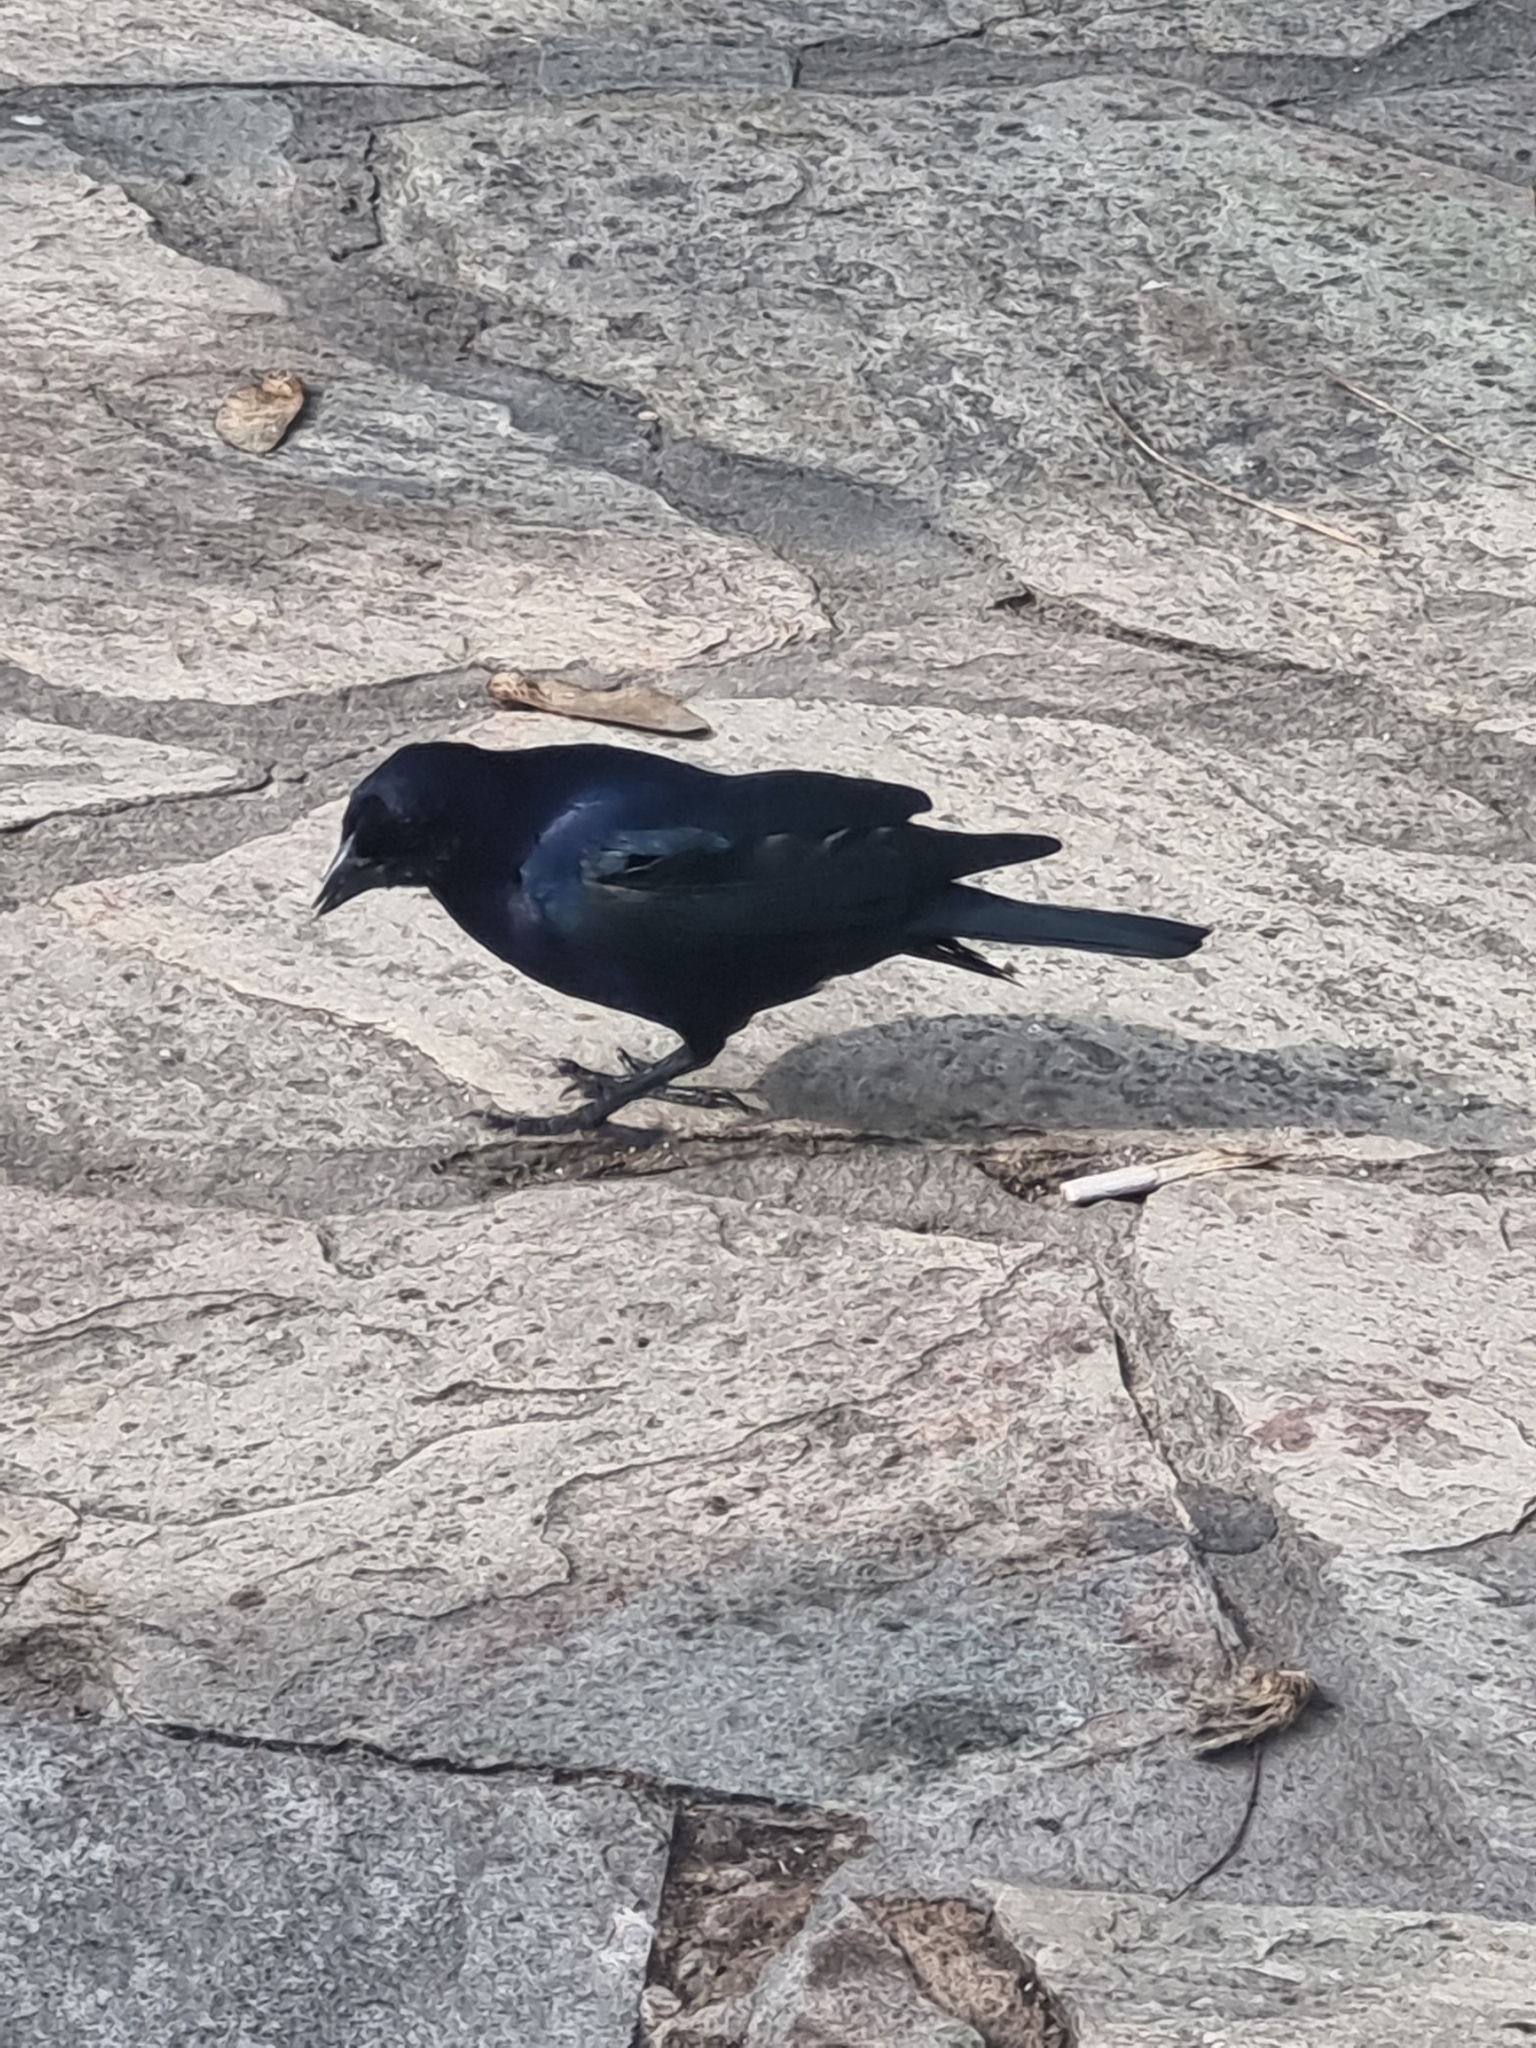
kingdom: Animalia
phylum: Chordata
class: Aves
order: Passeriformes
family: Icteridae
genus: Molothrus
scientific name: Molothrus bonariensis
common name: Shiny cowbird
